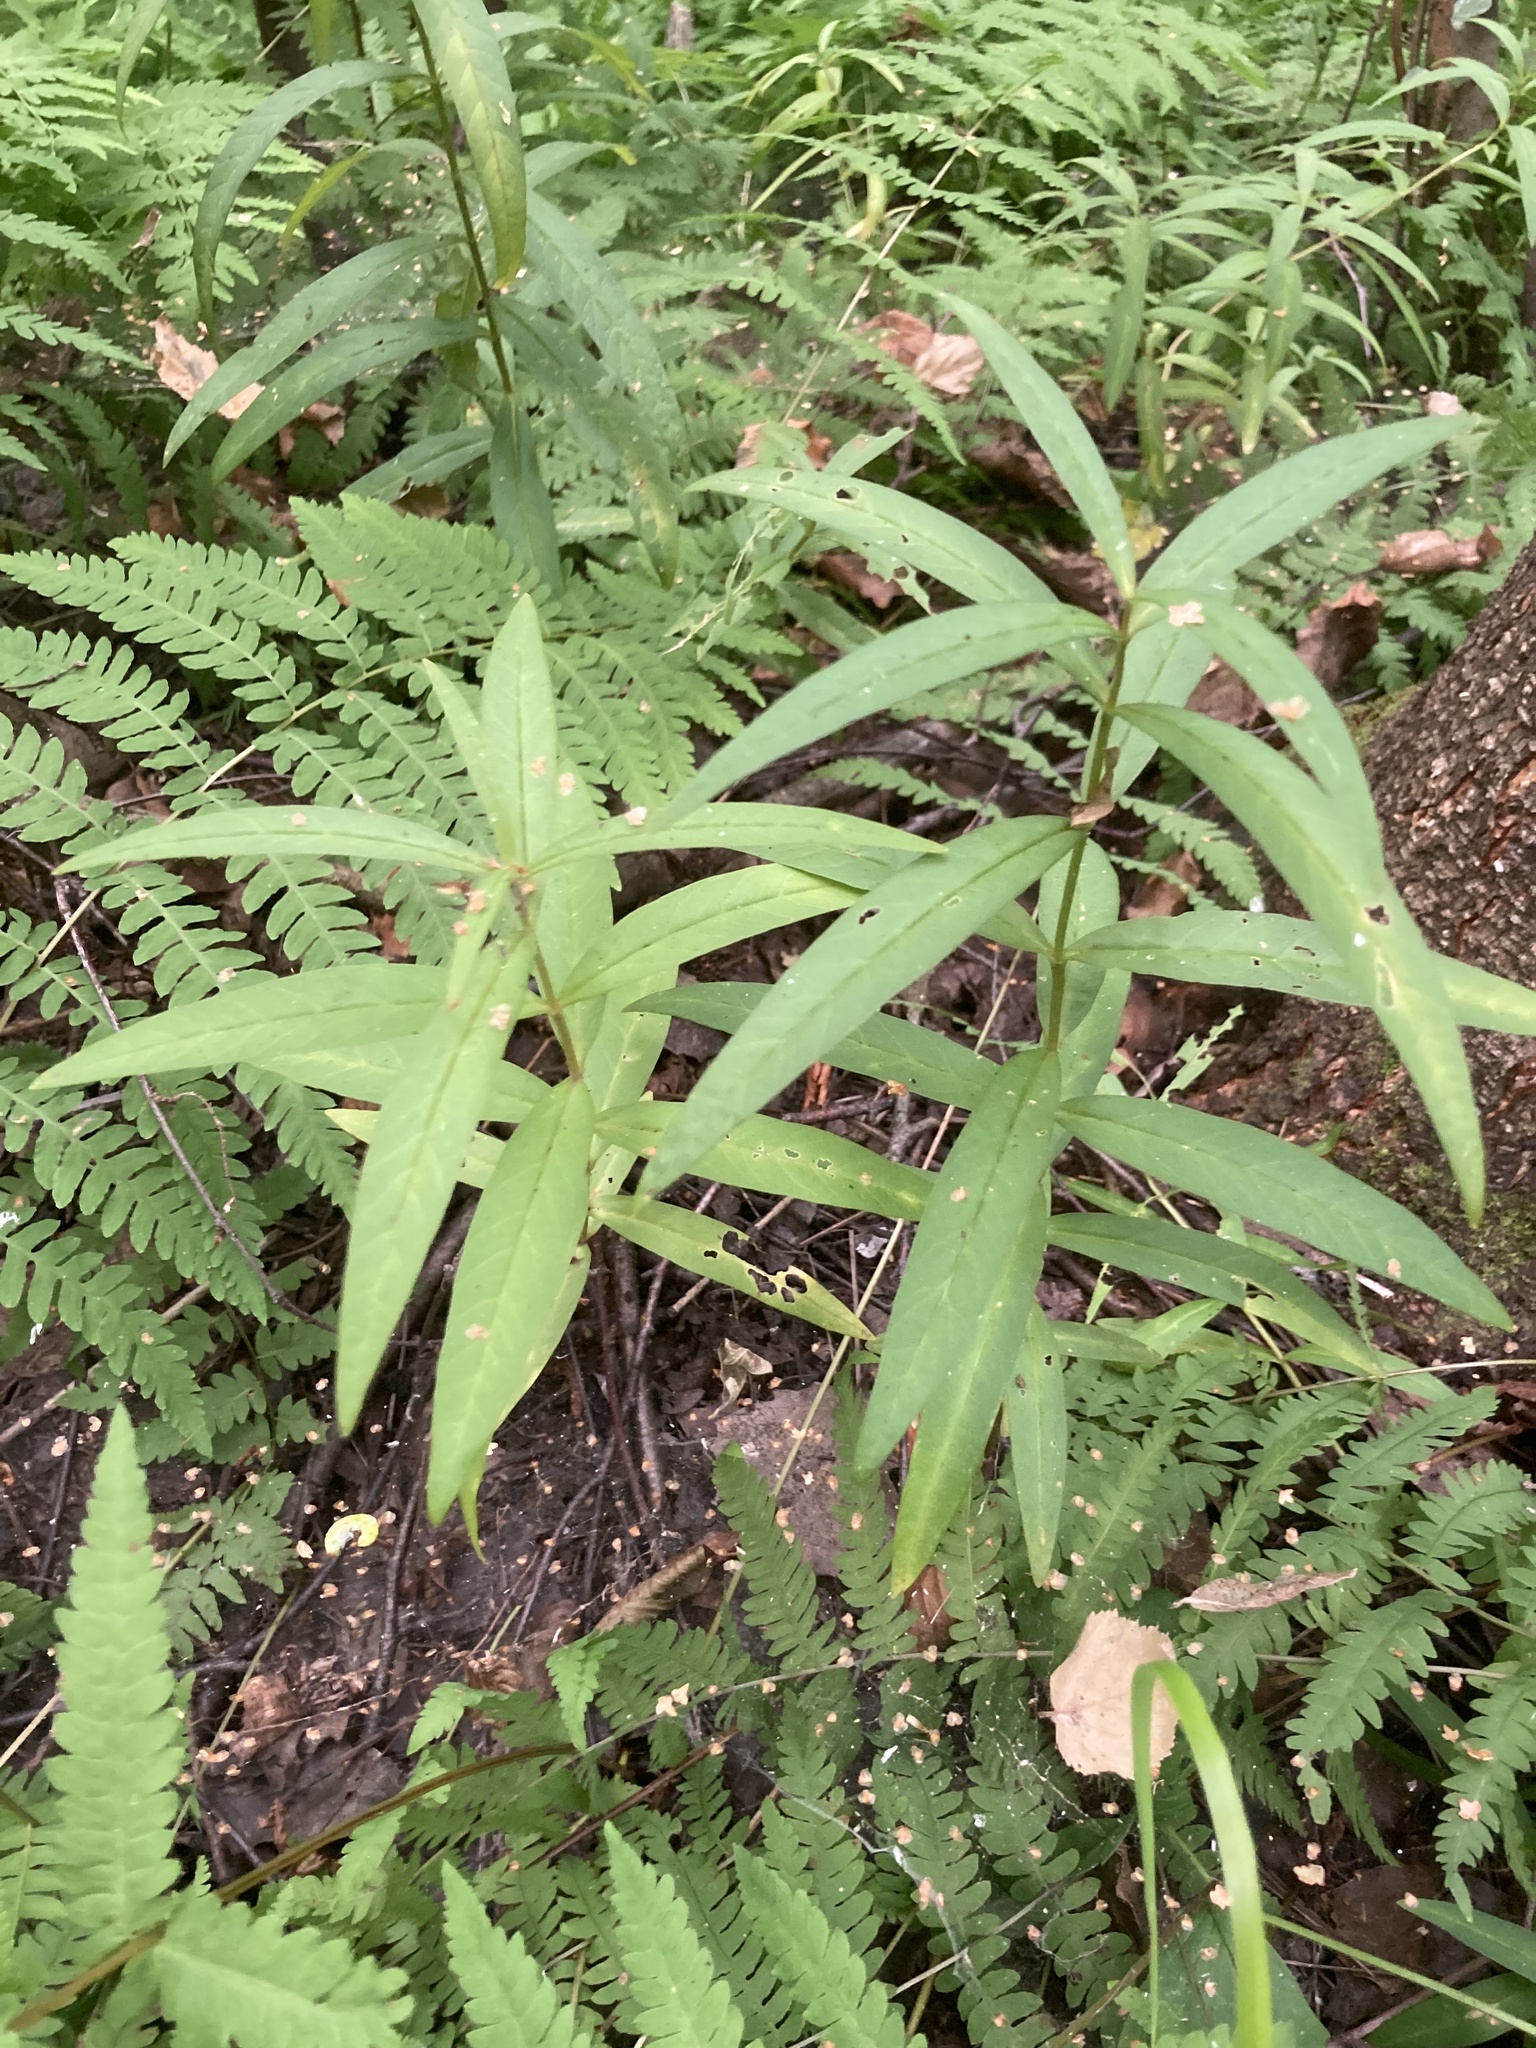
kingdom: Plantae
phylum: Tracheophyta
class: Magnoliopsida
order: Ericales
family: Primulaceae
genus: Lysimachia
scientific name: Lysimachia thyrsiflora
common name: Tufted loosestrife
